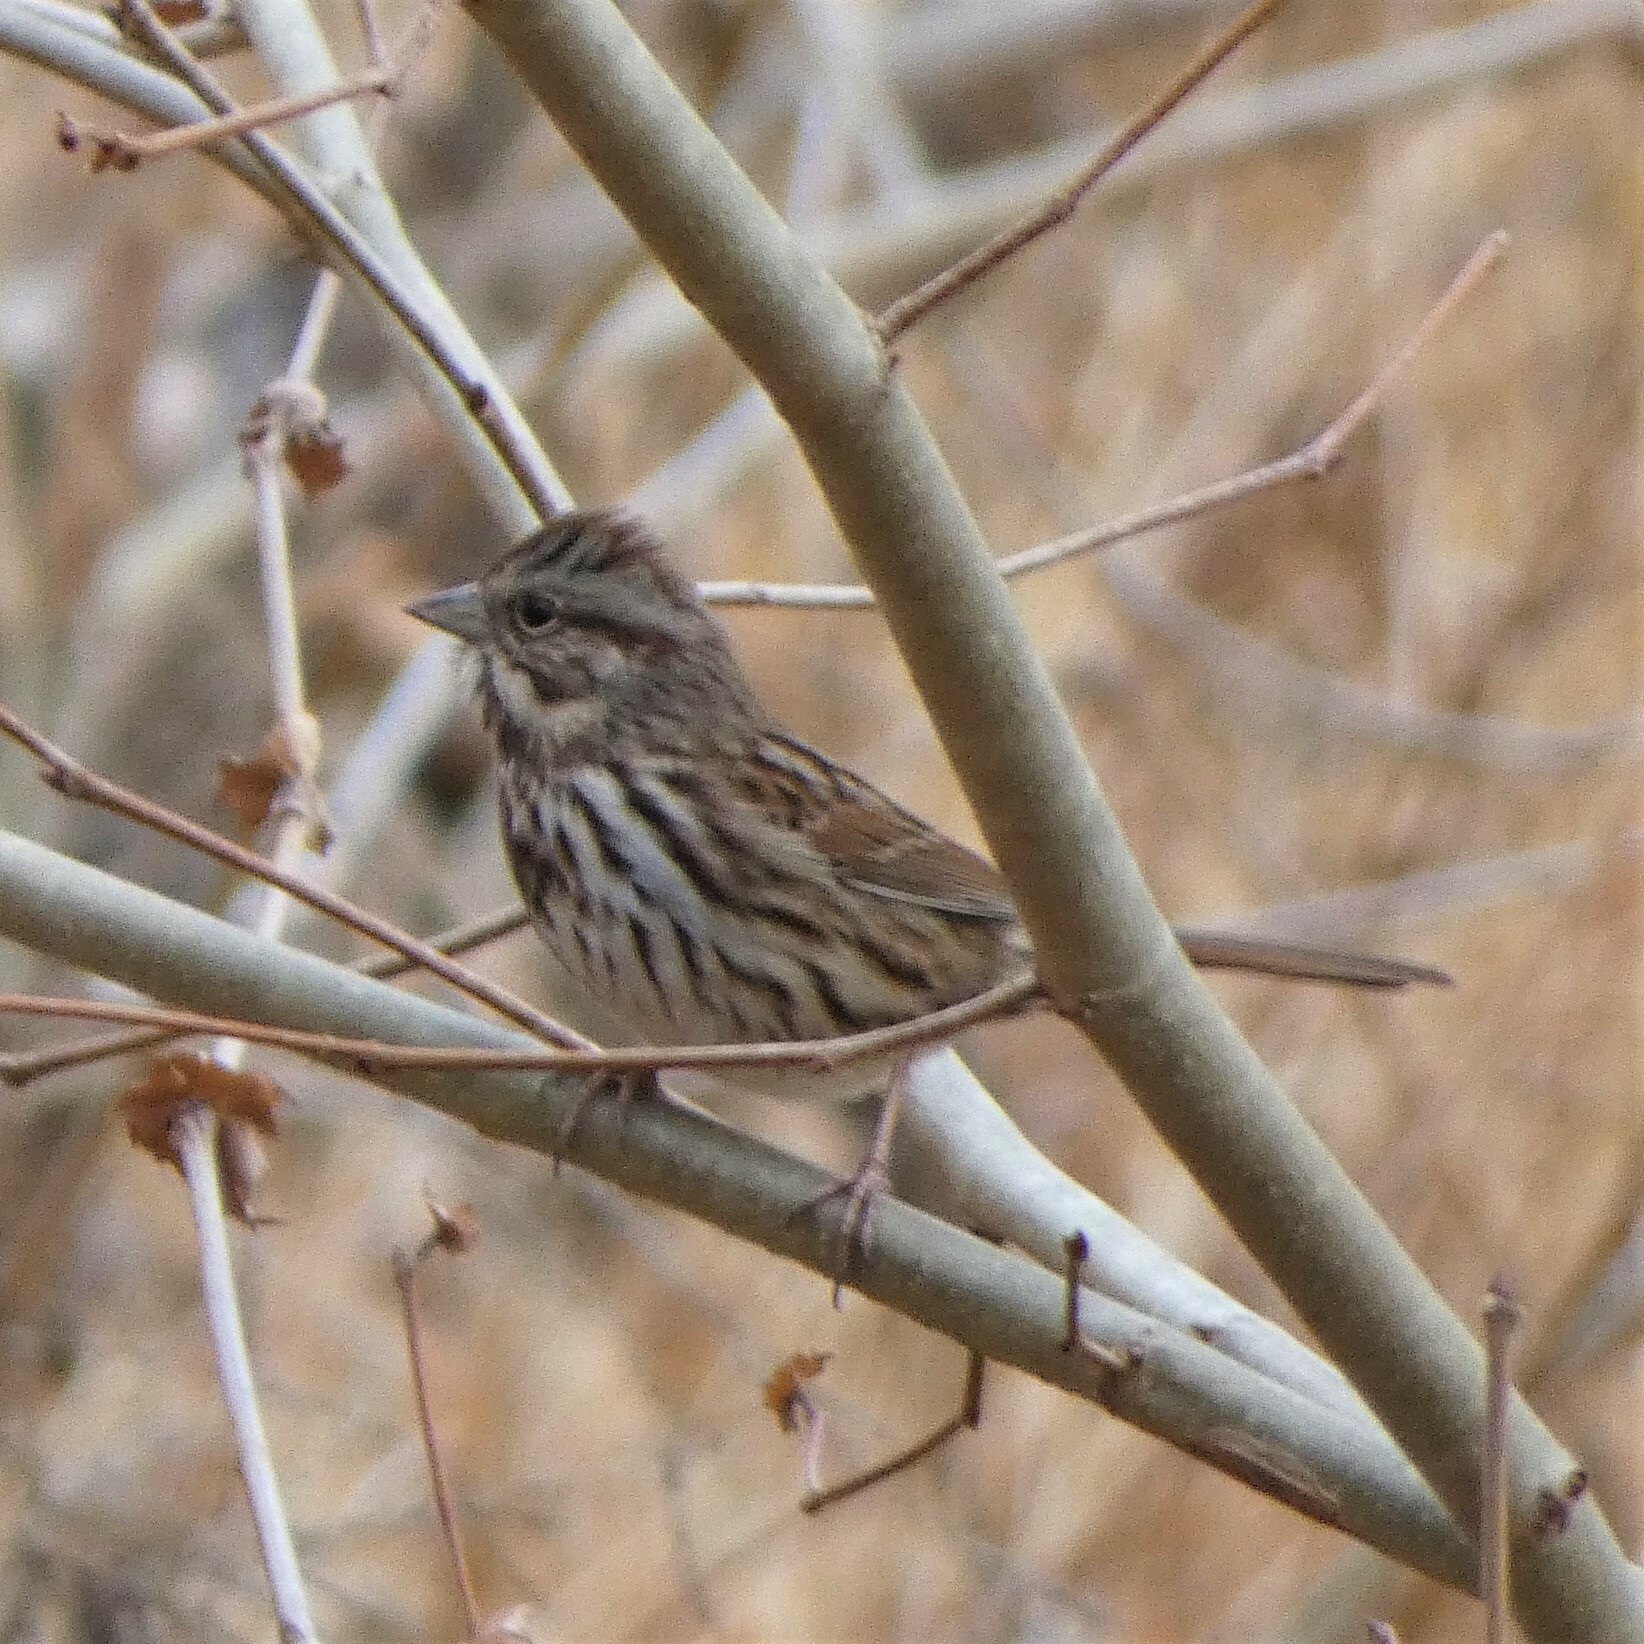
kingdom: Animalia
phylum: Chordata
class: Aves
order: Passeriformes
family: Passerellidae
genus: Melospiza
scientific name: Melospiza melodia
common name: Song sparrow
